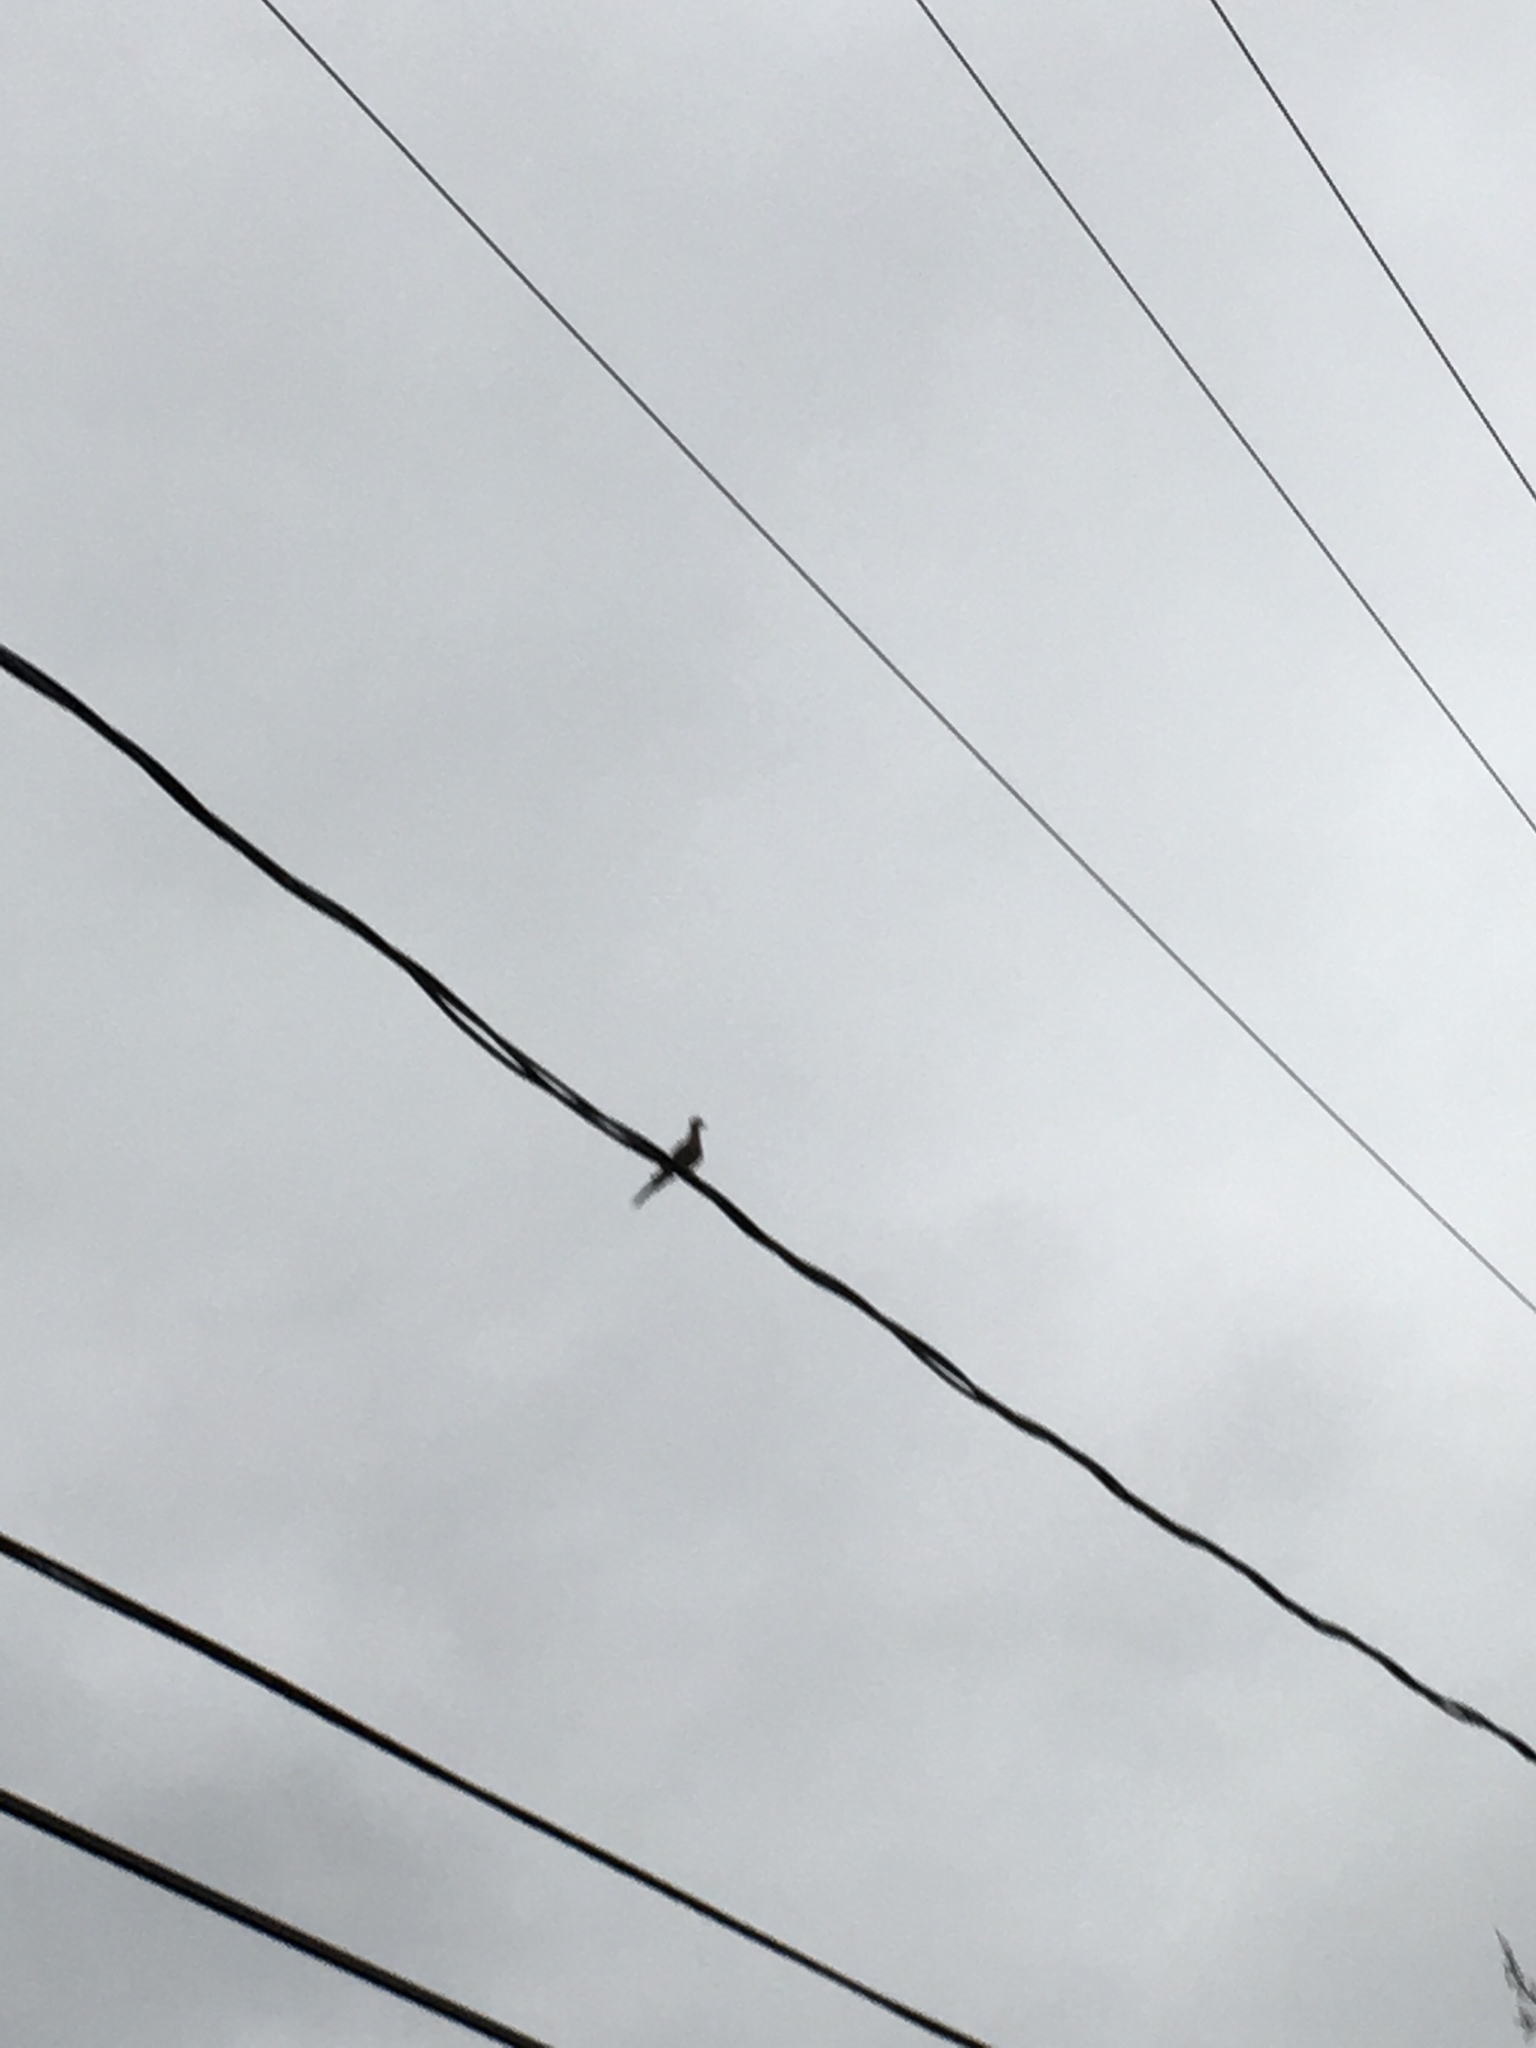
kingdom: Animalia
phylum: Chordata
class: Aves
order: Columbiformes
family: Columbidae
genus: Zenaida
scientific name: Zenaida macroura
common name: Mourning dove
